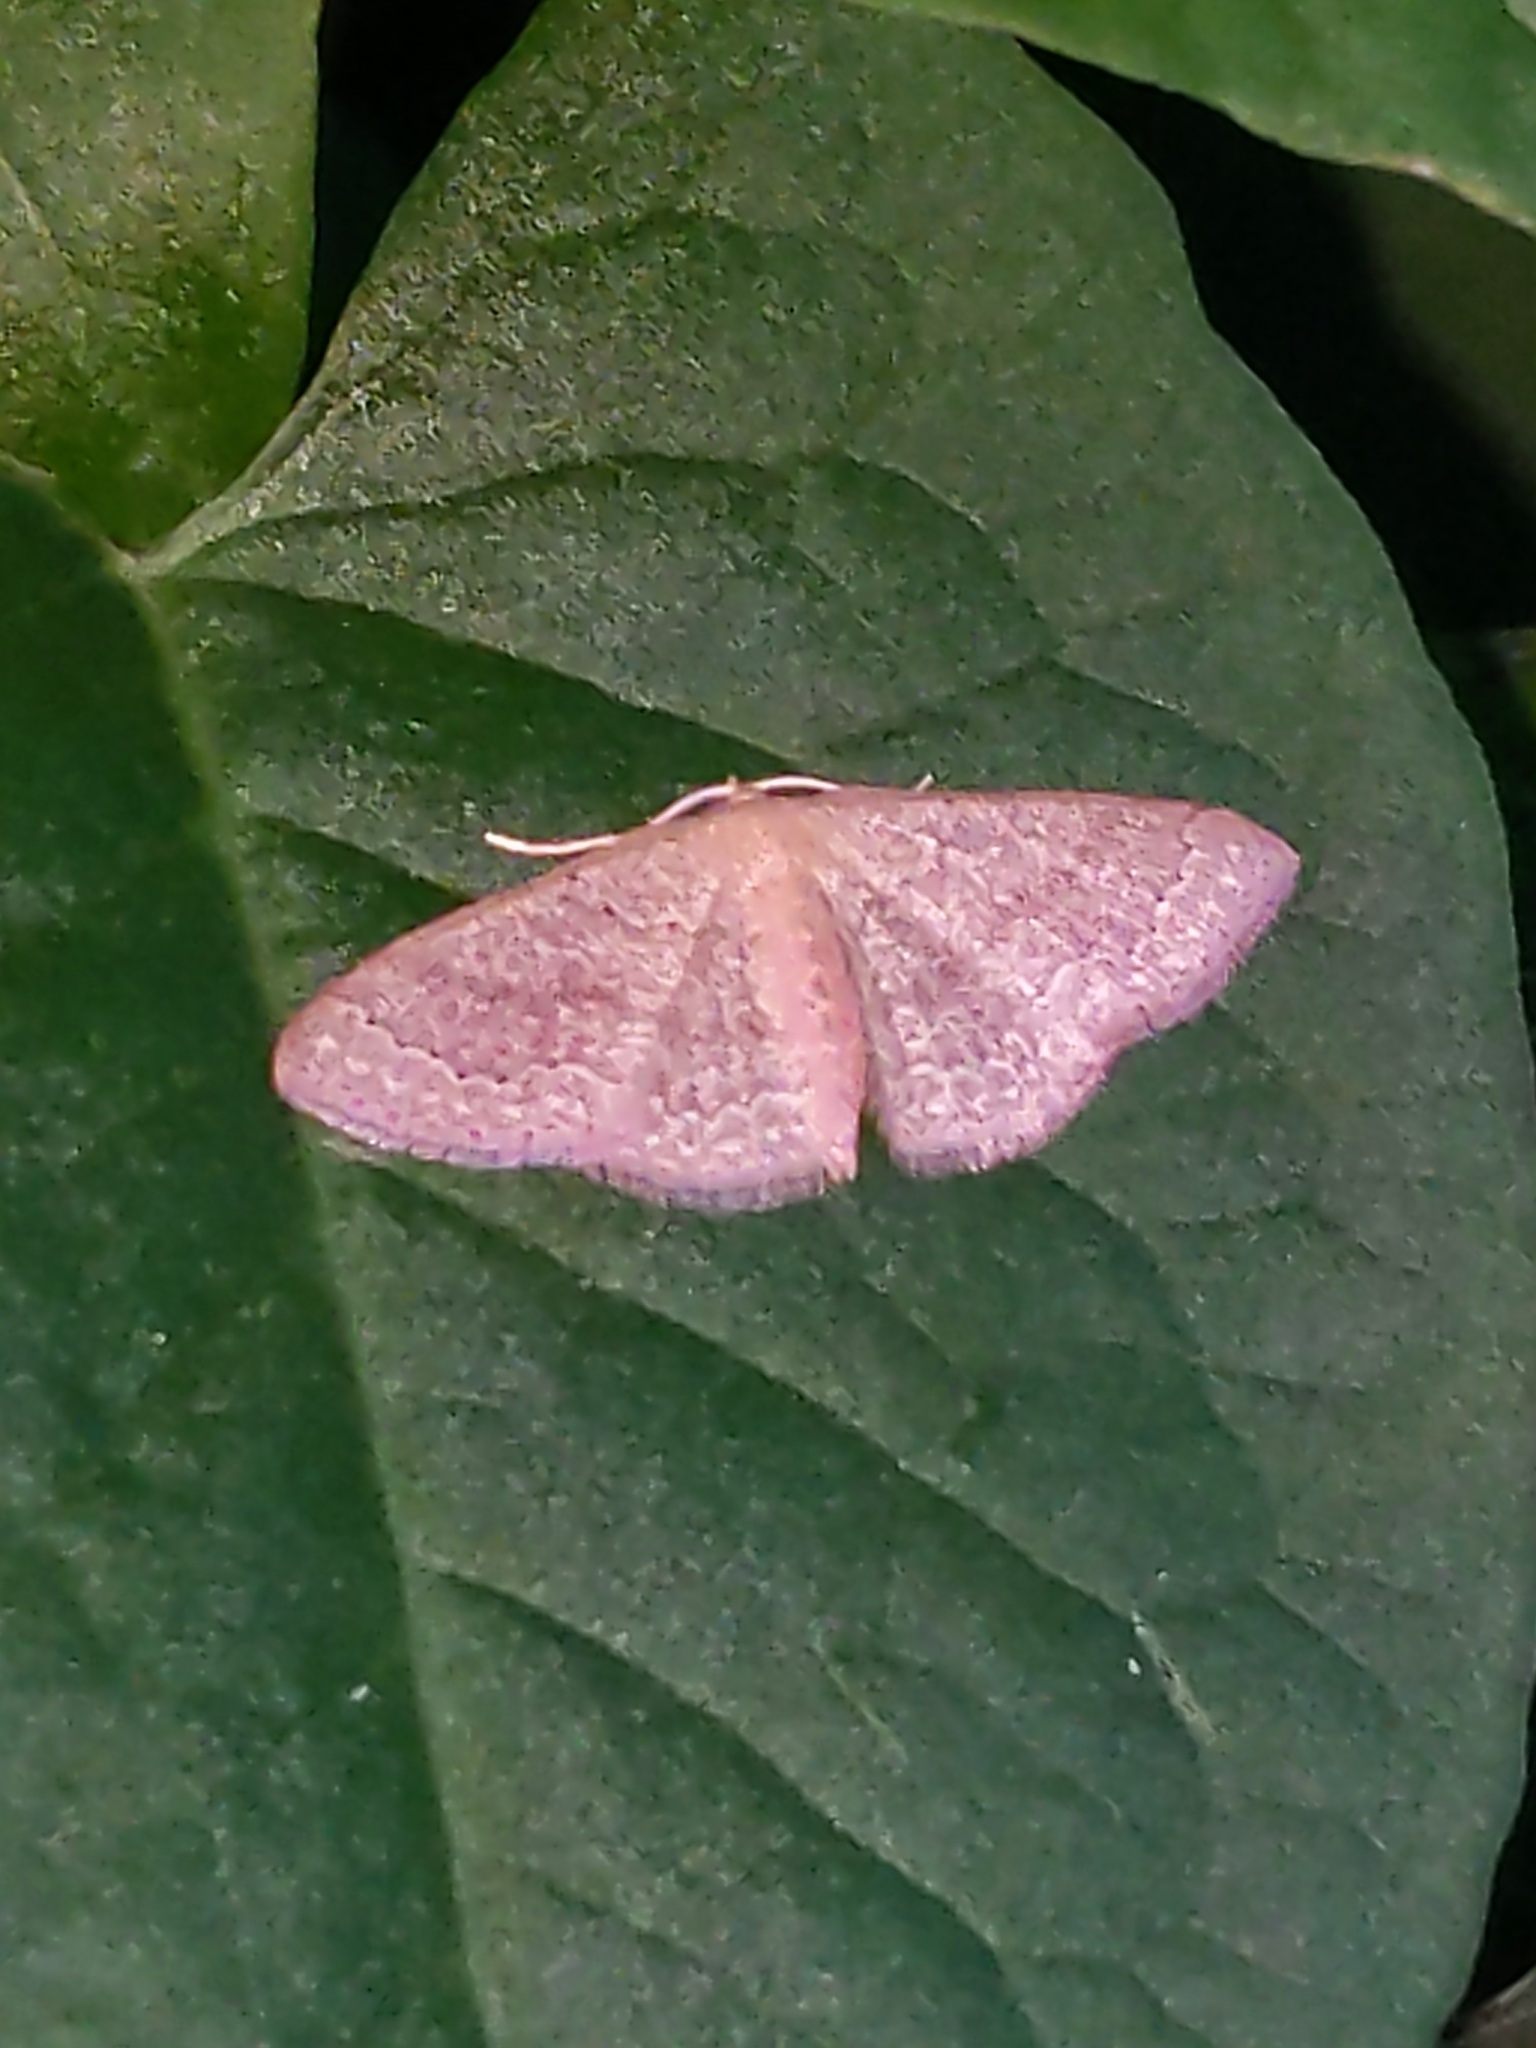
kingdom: Animalia
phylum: Arthropoda
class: Insecta
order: Lepidoptera
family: Geometridae
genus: Pleuroprucha
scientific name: Pleuroprucha insulsaria
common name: Common tan wave
